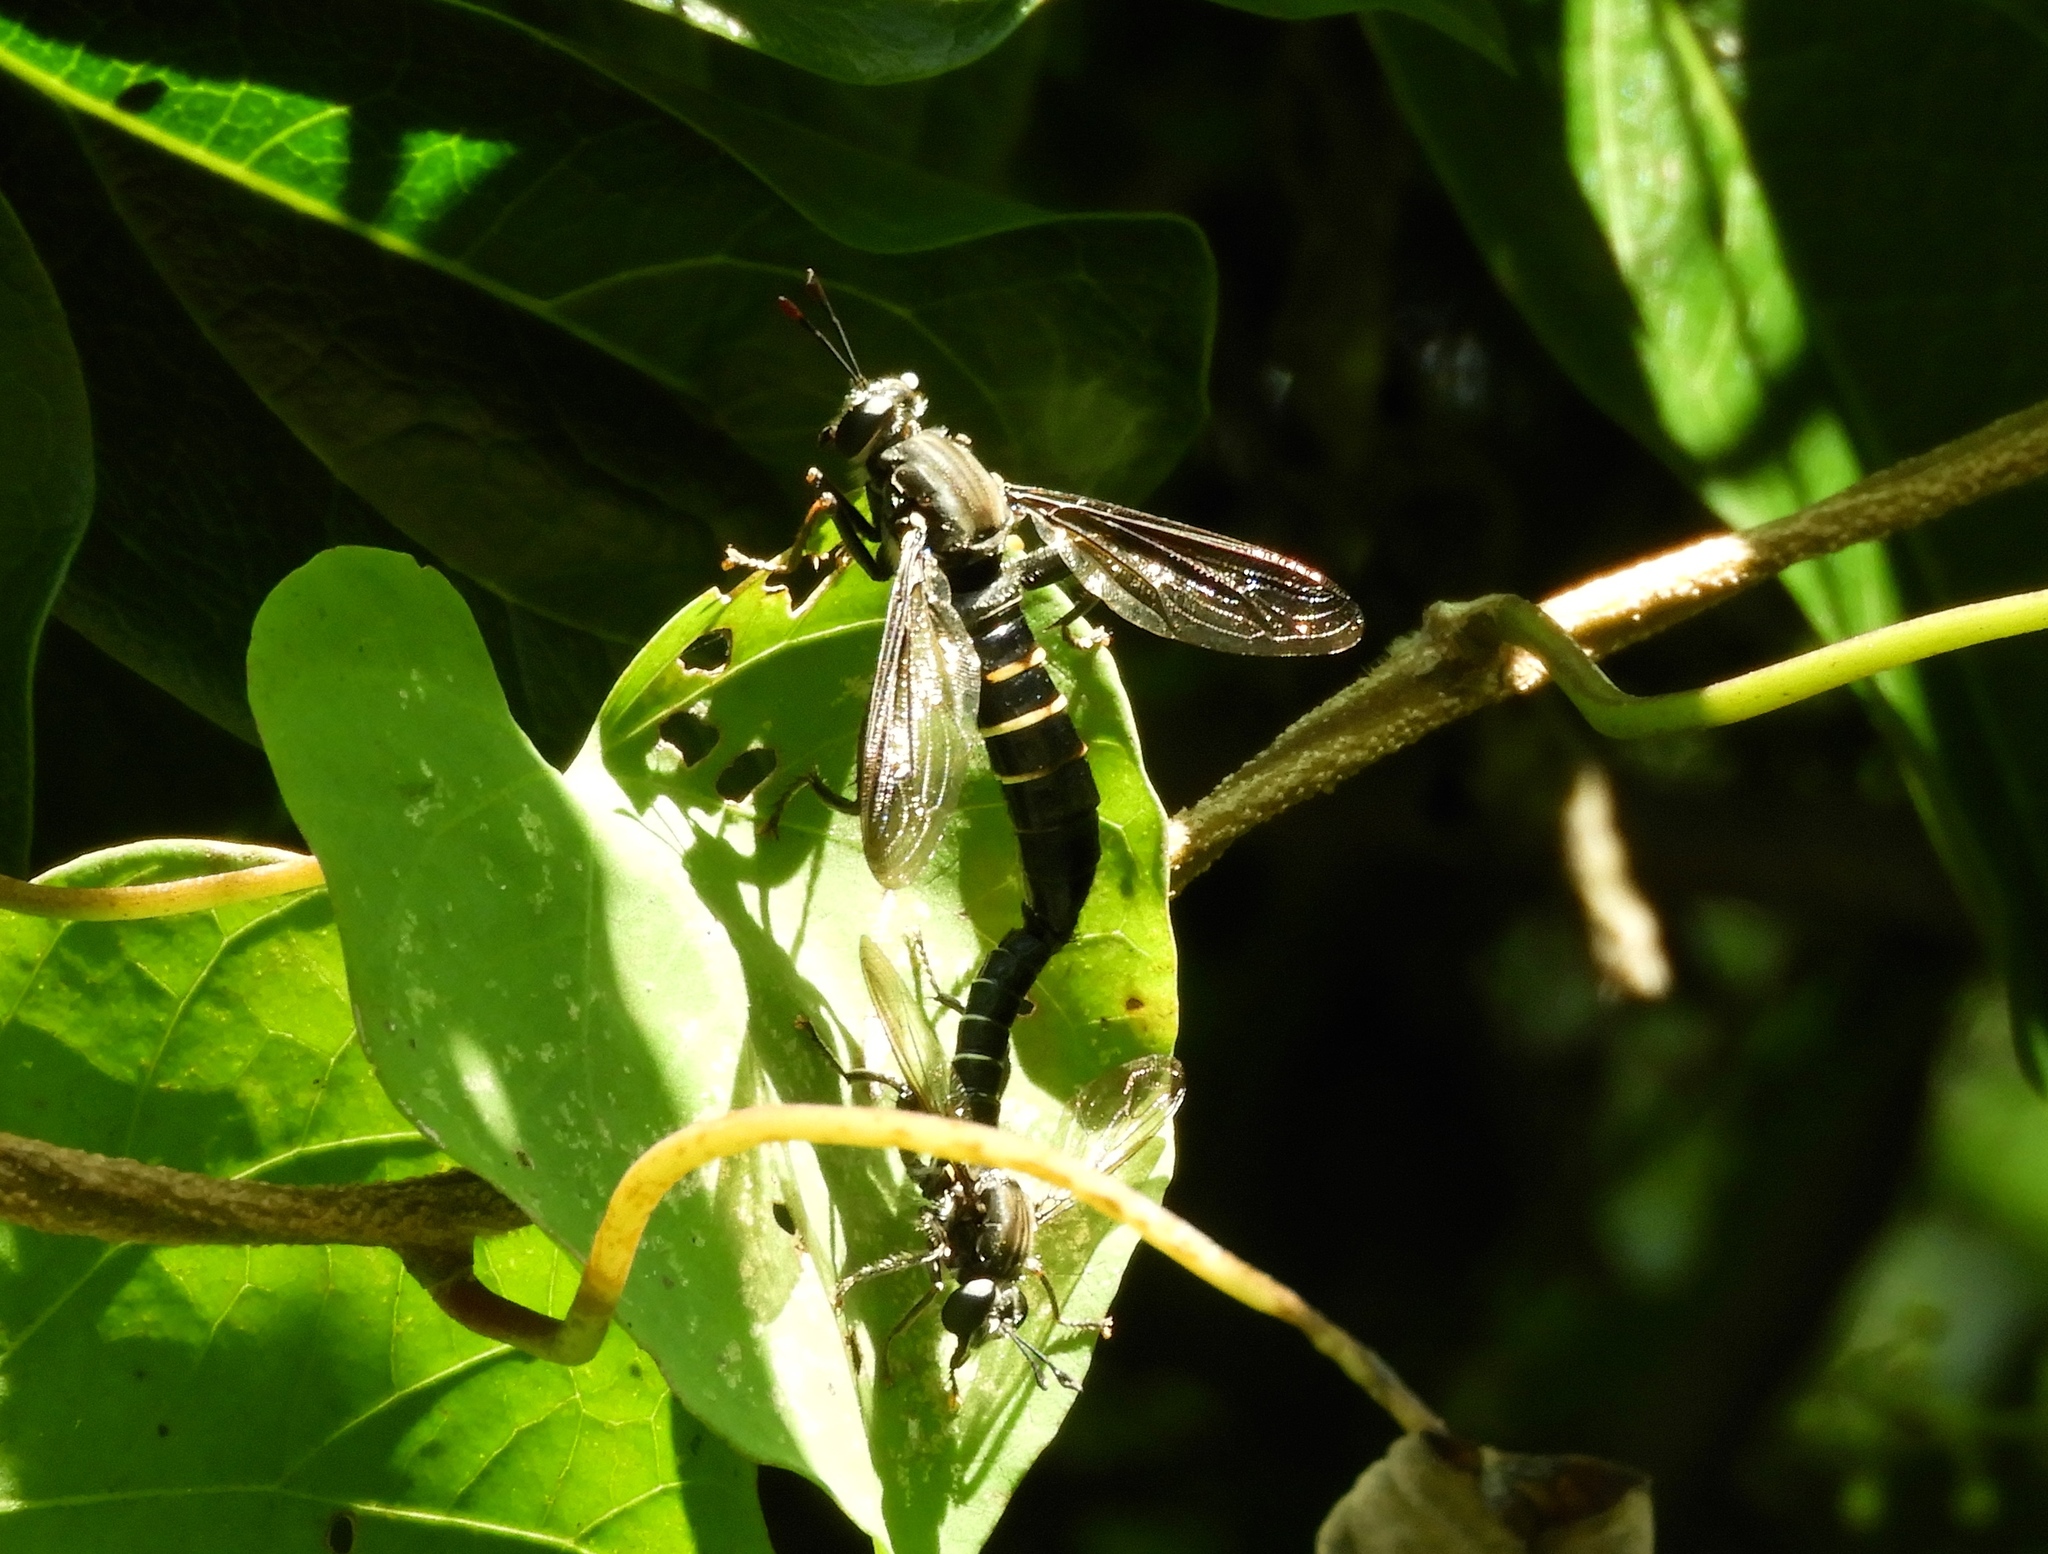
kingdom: Animalia
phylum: Arthropoda
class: Insecta
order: Diptera
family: Mydidae
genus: Mydas
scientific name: Mydas
